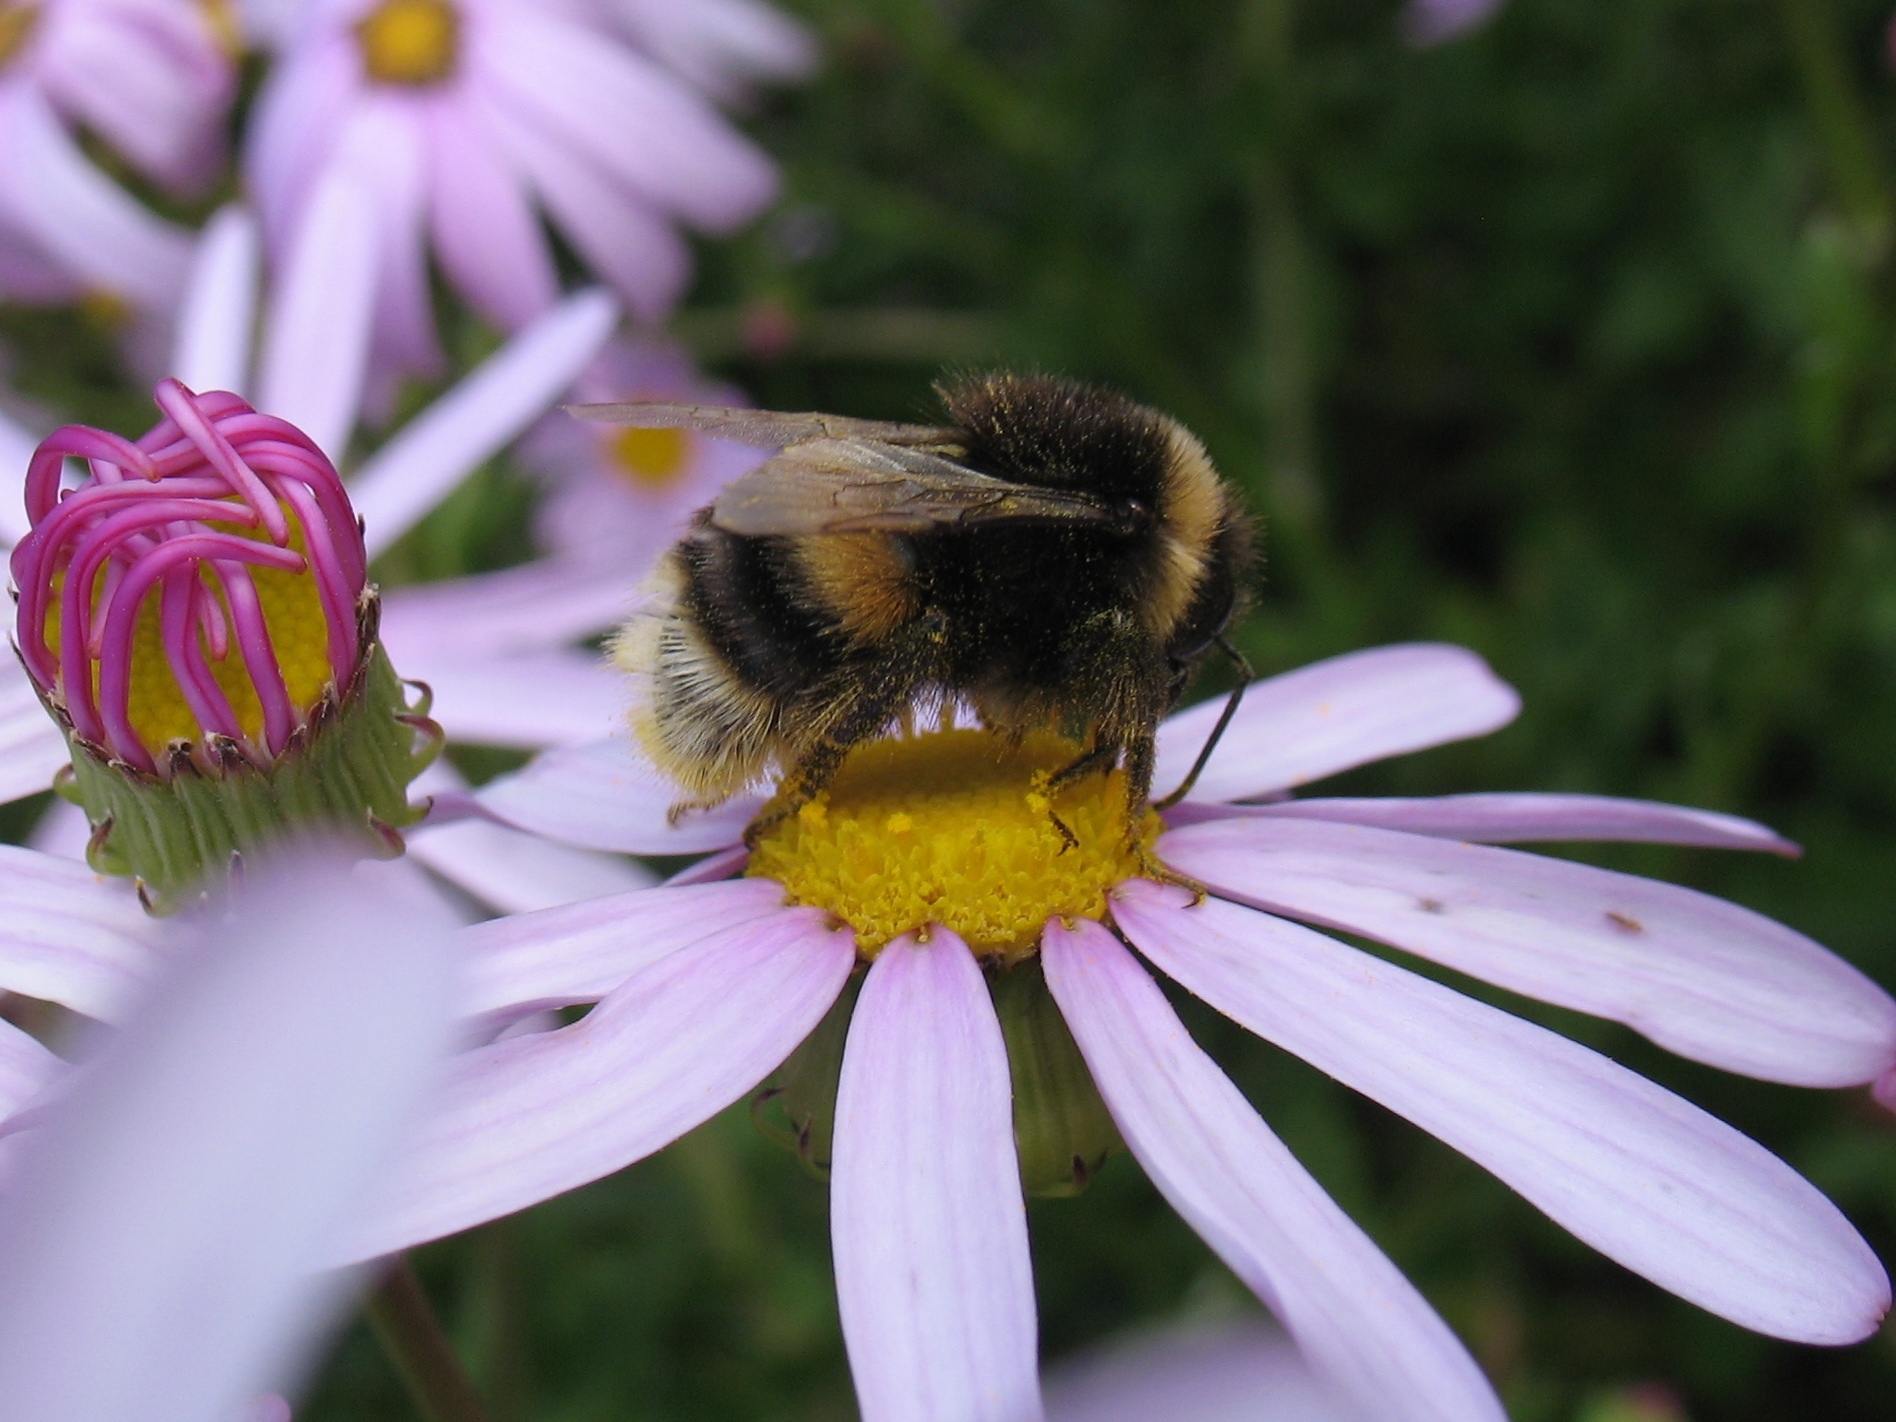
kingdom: Animalia
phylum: Arthropoda
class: Insecta
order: Hymenoptera
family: Apidae
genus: Bombus
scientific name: Bombus terrestris
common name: Buff-tailed bumblebee
